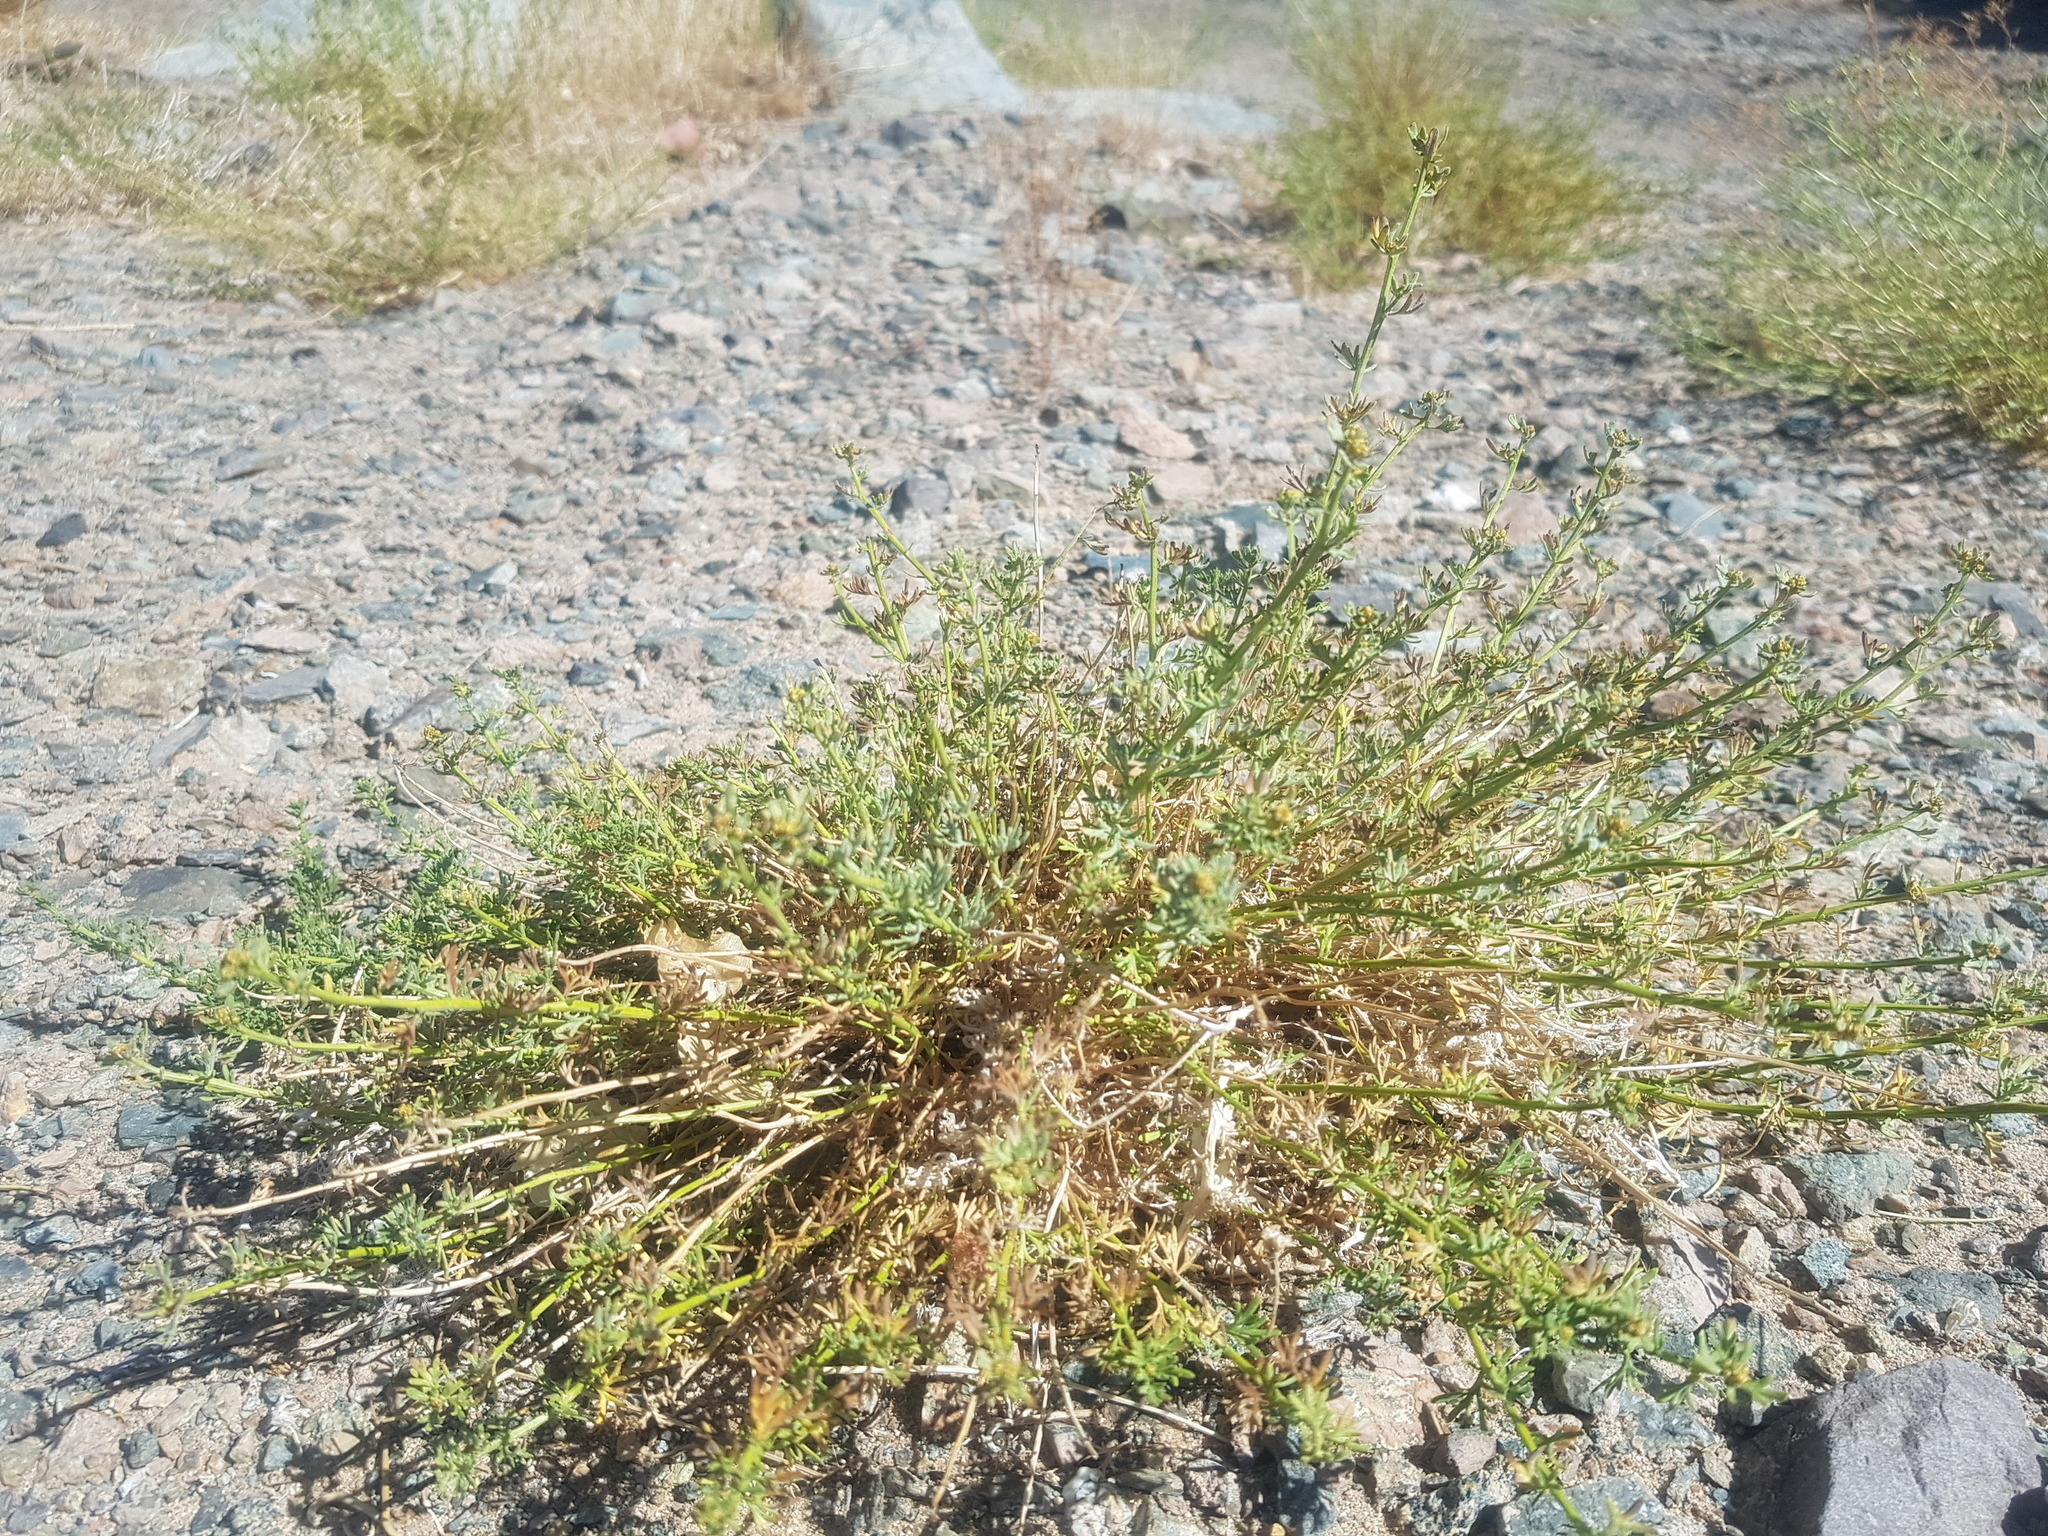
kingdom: Plantae
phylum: Tracheophyta
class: Magnoliopsida
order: Asterales
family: Asteraceae
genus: Ajania
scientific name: Ajania achilleoides
